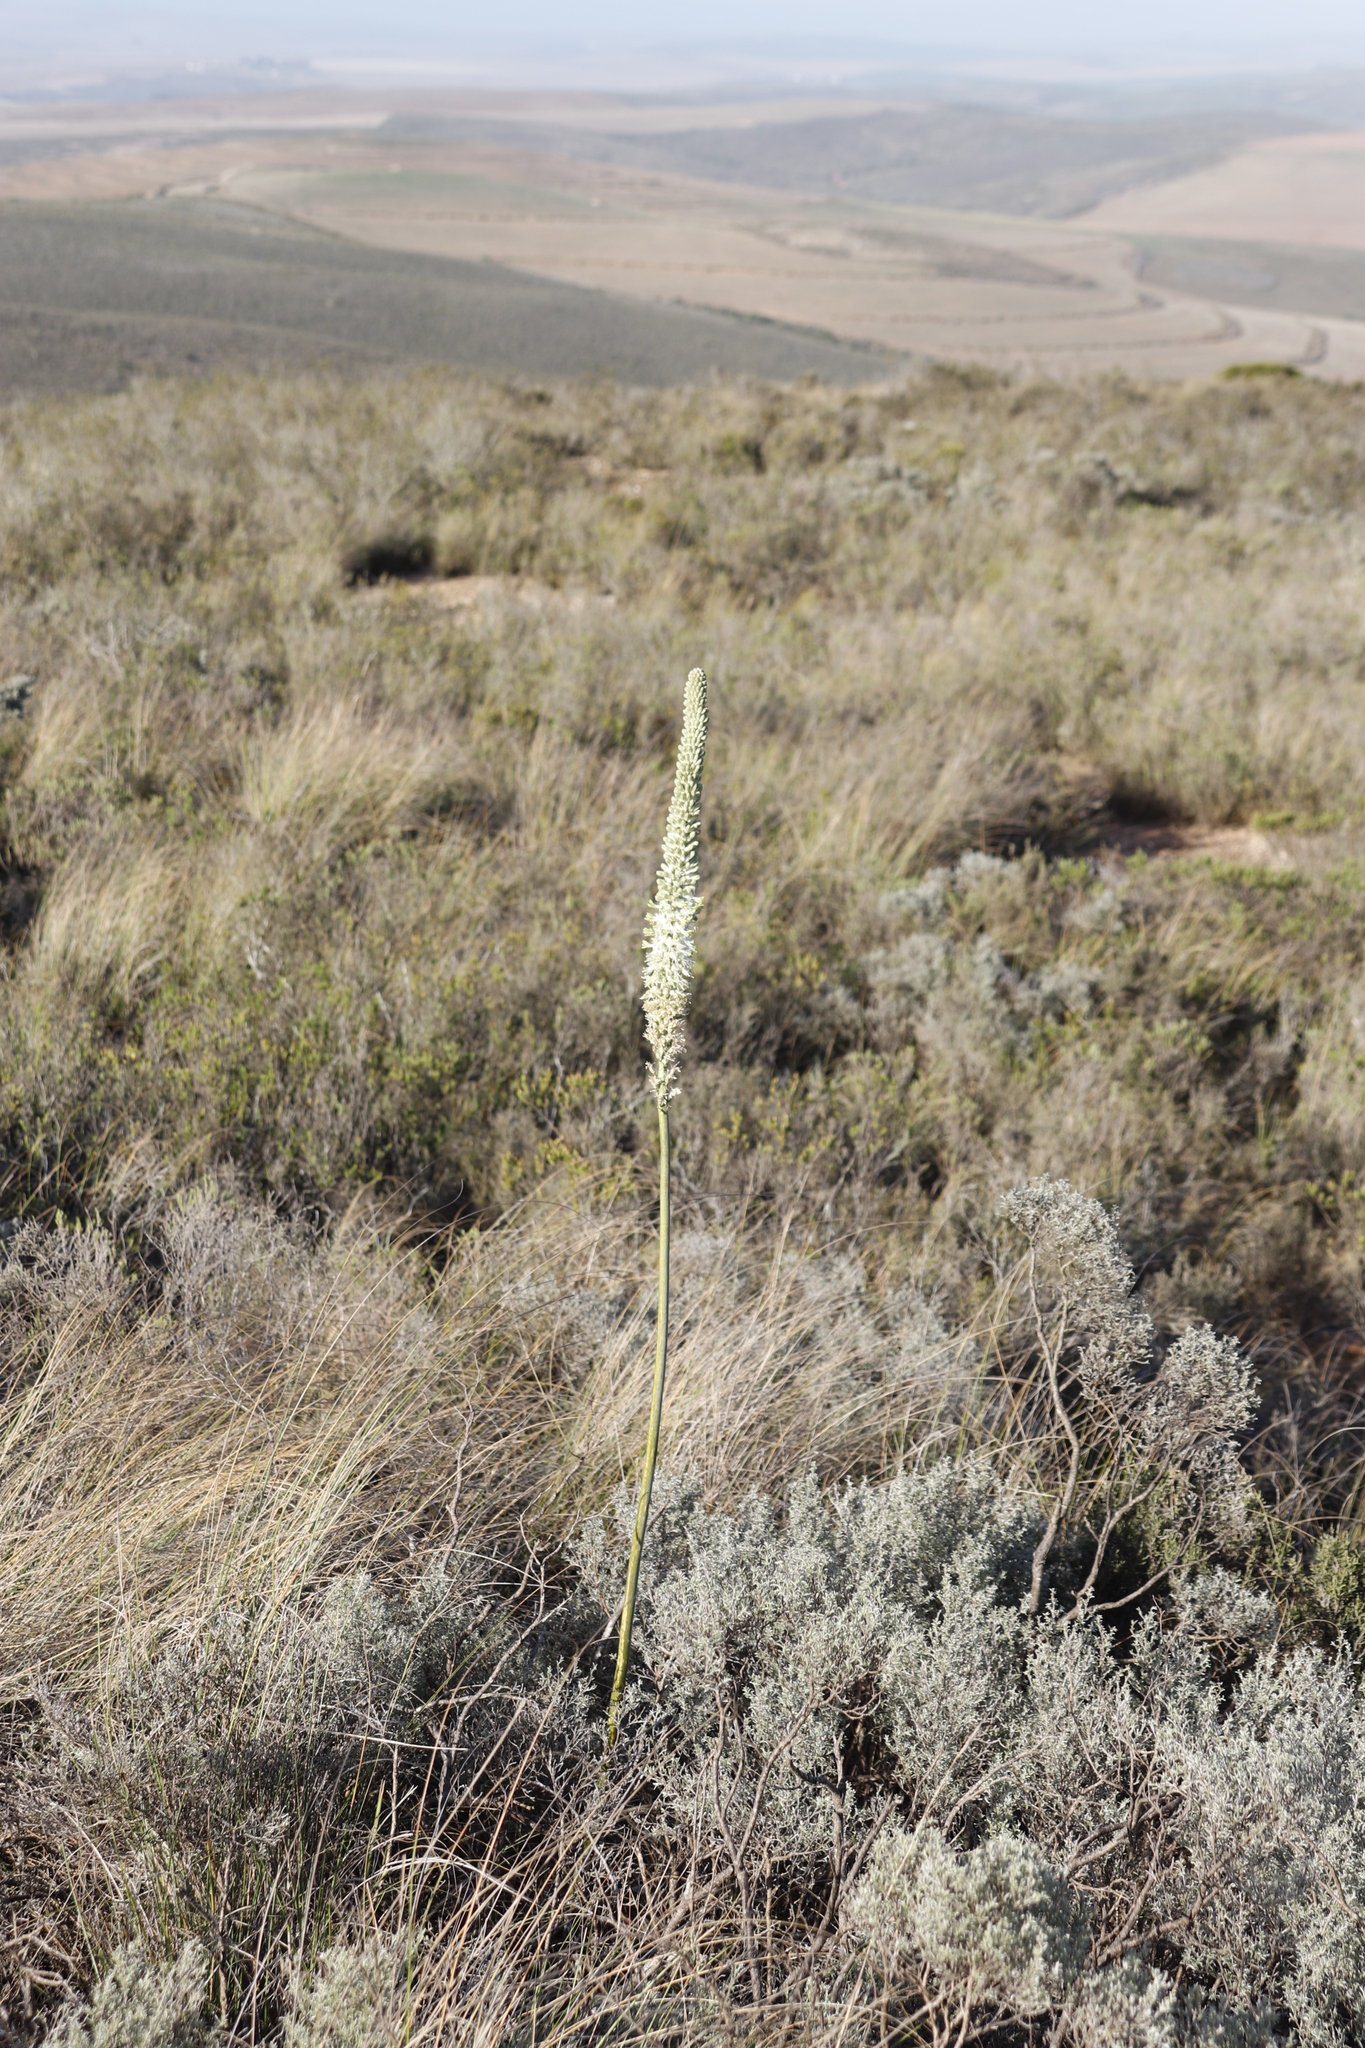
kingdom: Plantae
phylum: Tracheophyta
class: Liliopsida
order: Asparagales
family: Asparagaceae
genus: Drimia
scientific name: Drimia capensis
